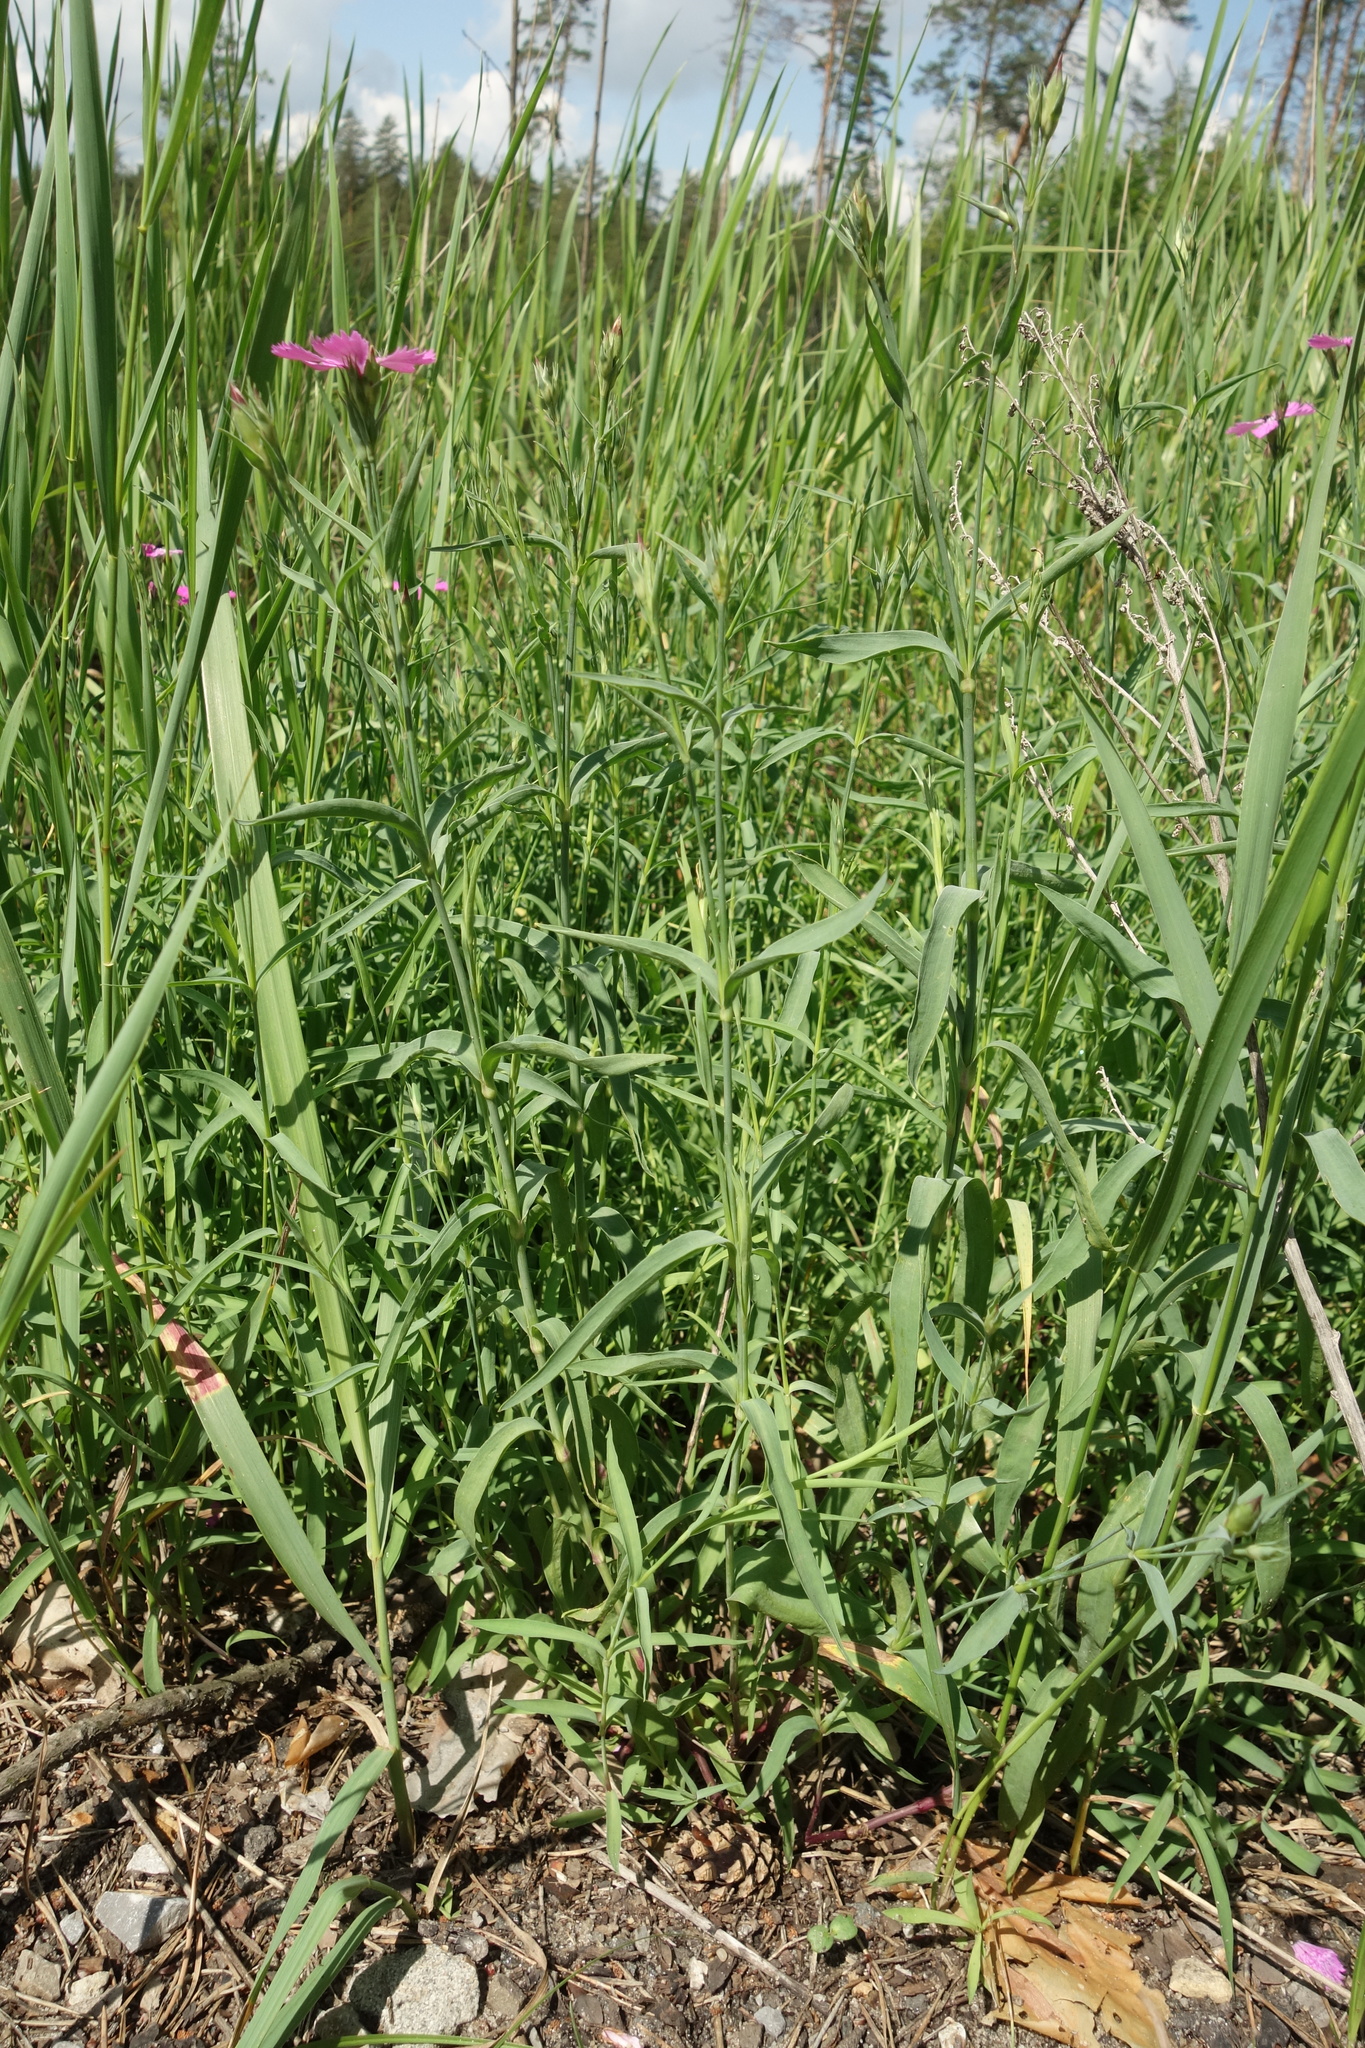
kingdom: Plantae
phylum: Tracheophyta
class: Magnoliopsida
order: Caryophyllales
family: Caryophyllaceae
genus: Dianthus
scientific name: Dianthus chinensis
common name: Rainbow pink
